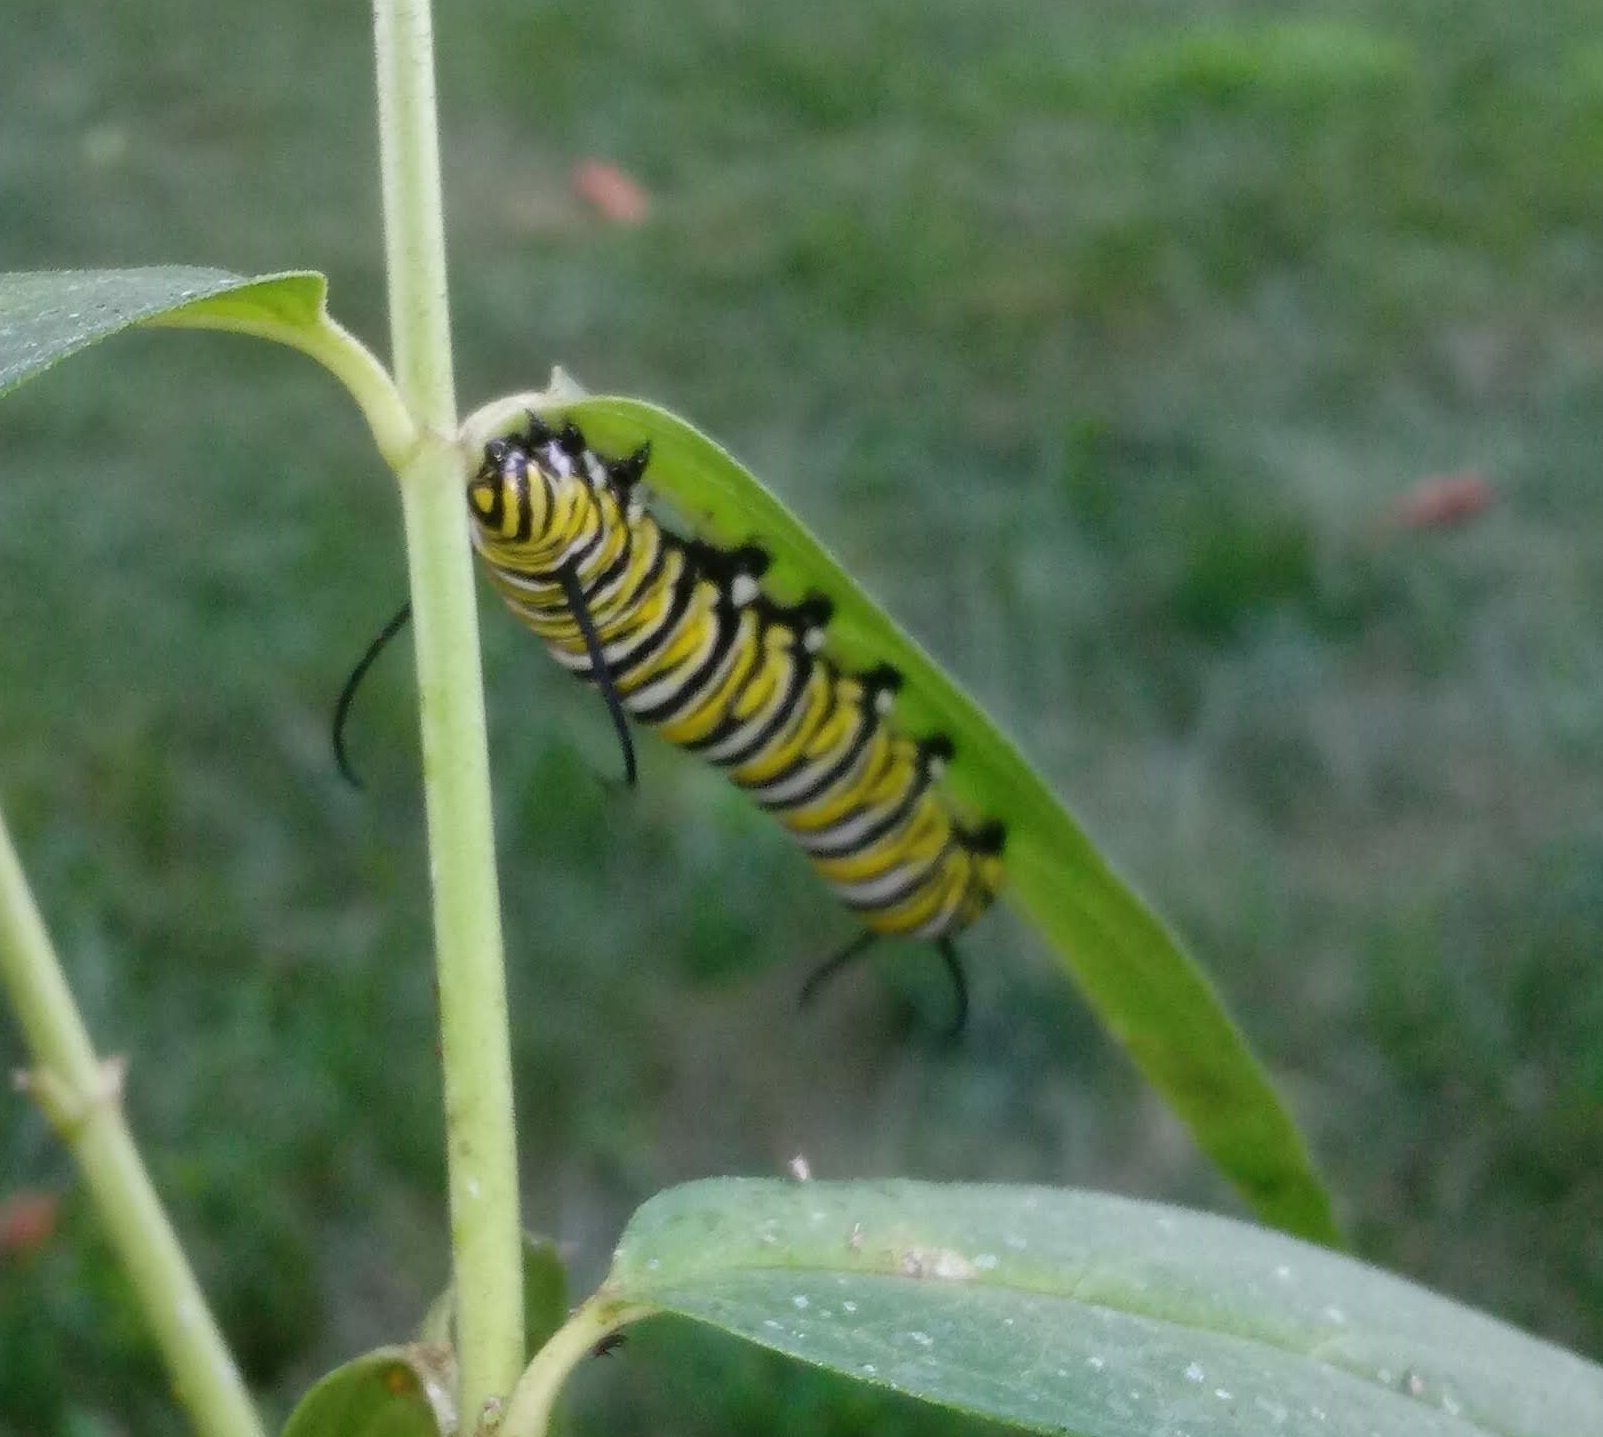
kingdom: Animalia
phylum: Arthropoda
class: Insecta
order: Lepidoptera
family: Nymphalidae
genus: Danaus
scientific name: Danaus plexippus
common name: Monarch
